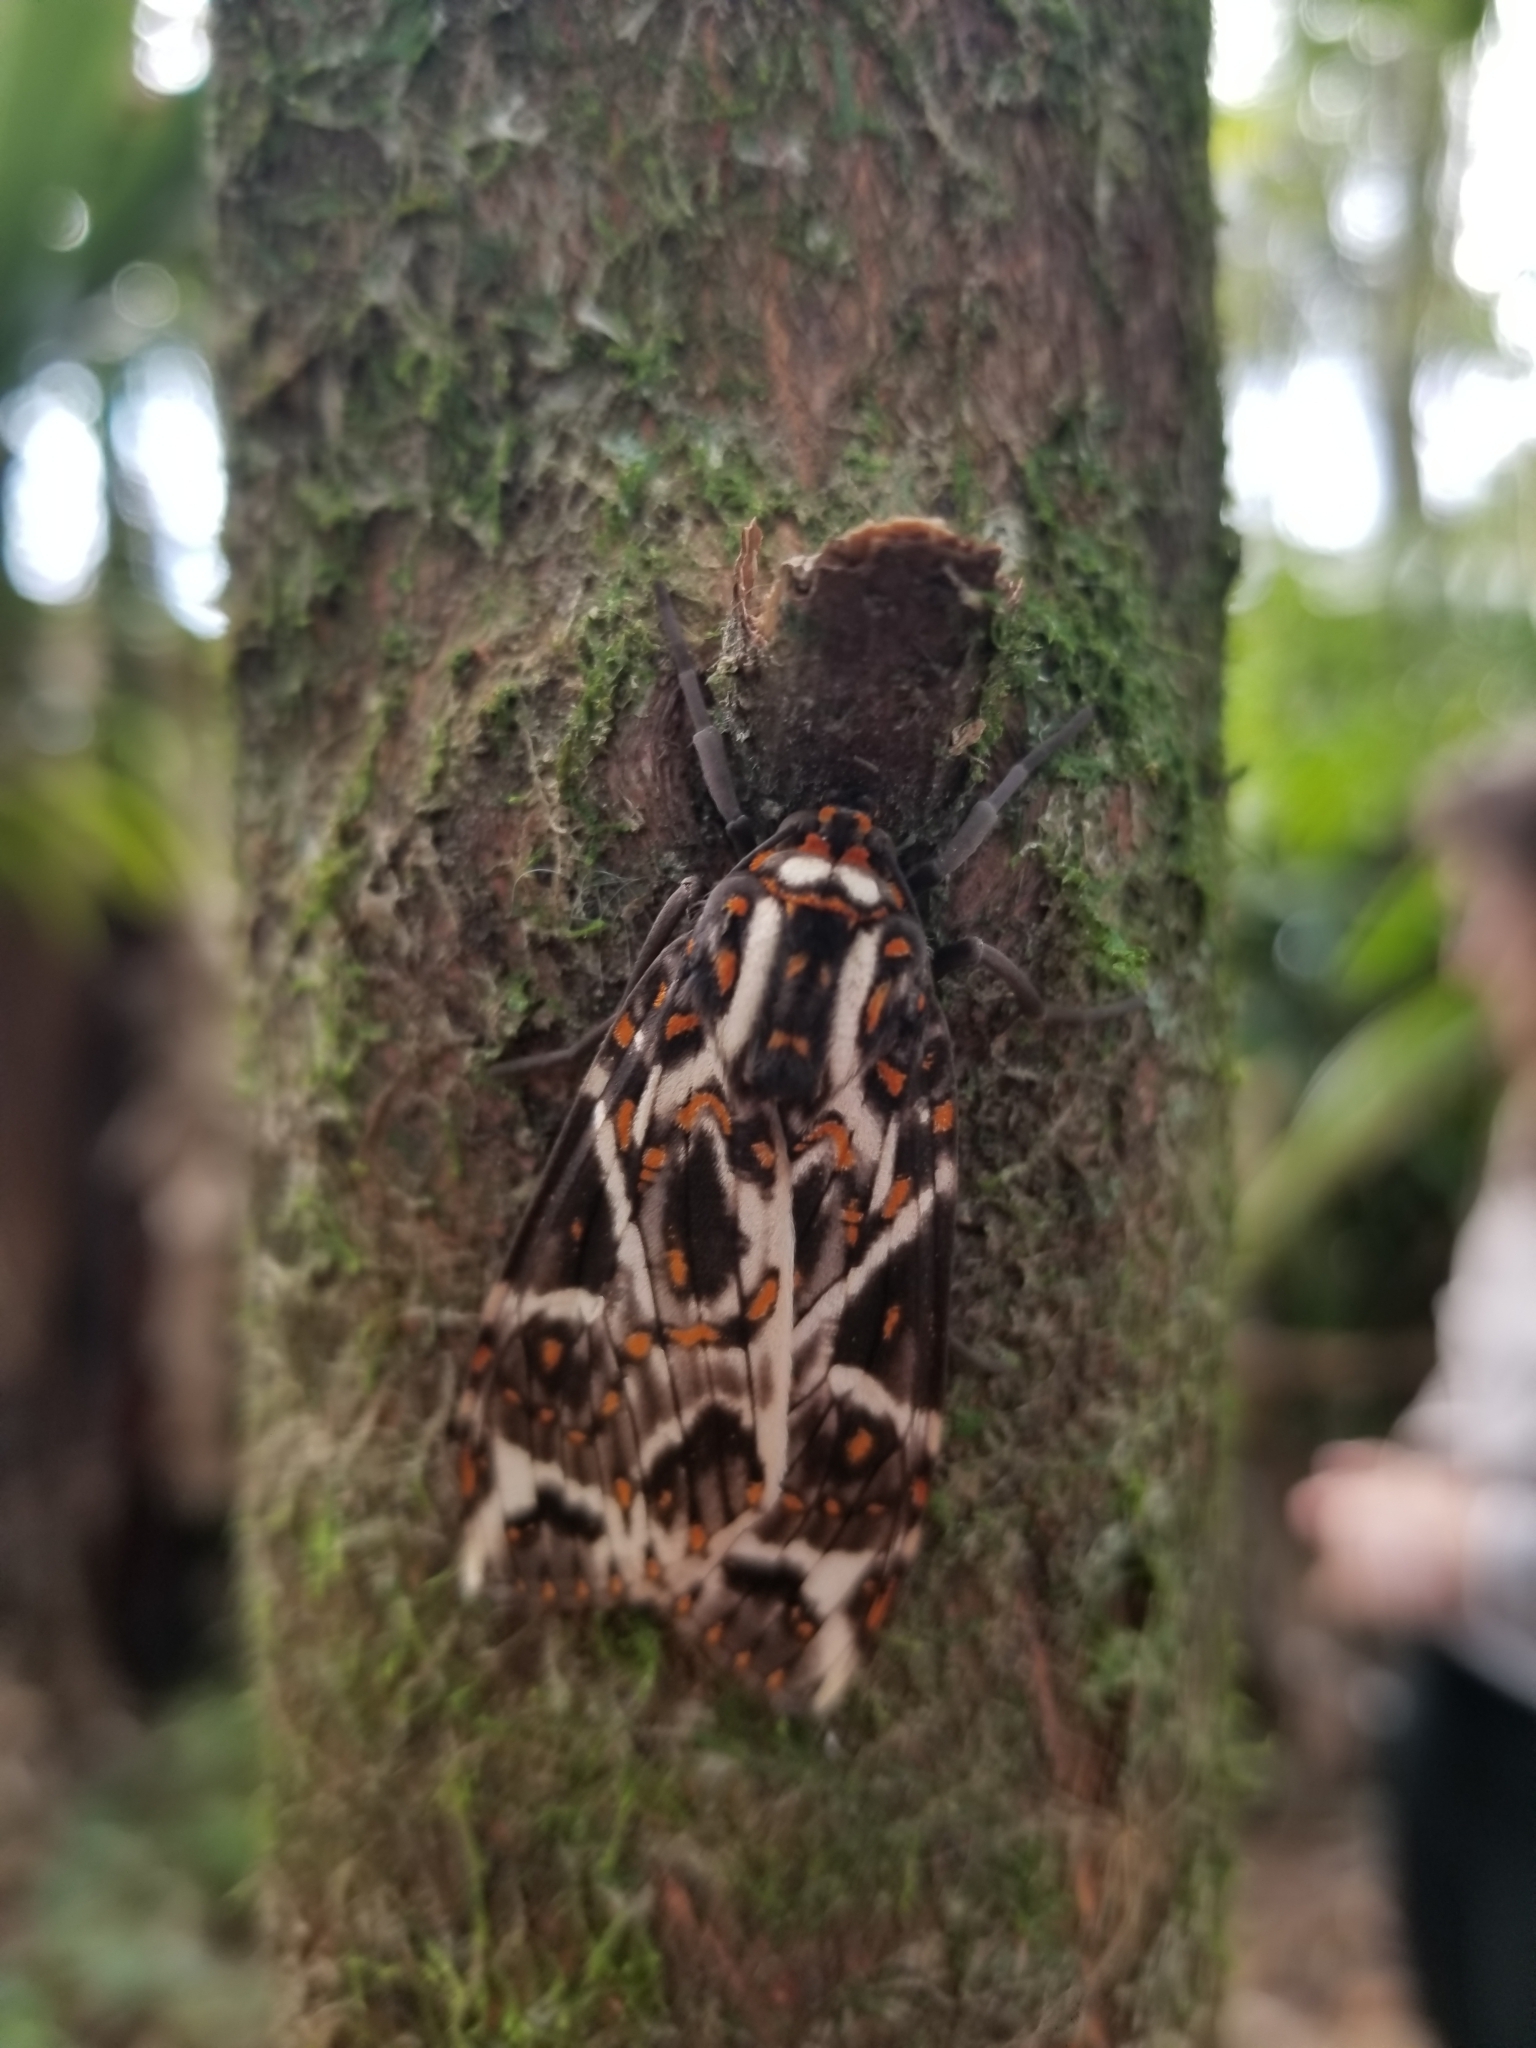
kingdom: Animalia
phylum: Arthropoda
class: Insecta
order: Lepidoptera
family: Erebidae
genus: Phaegoptera
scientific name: Phaegoptera histrionica
